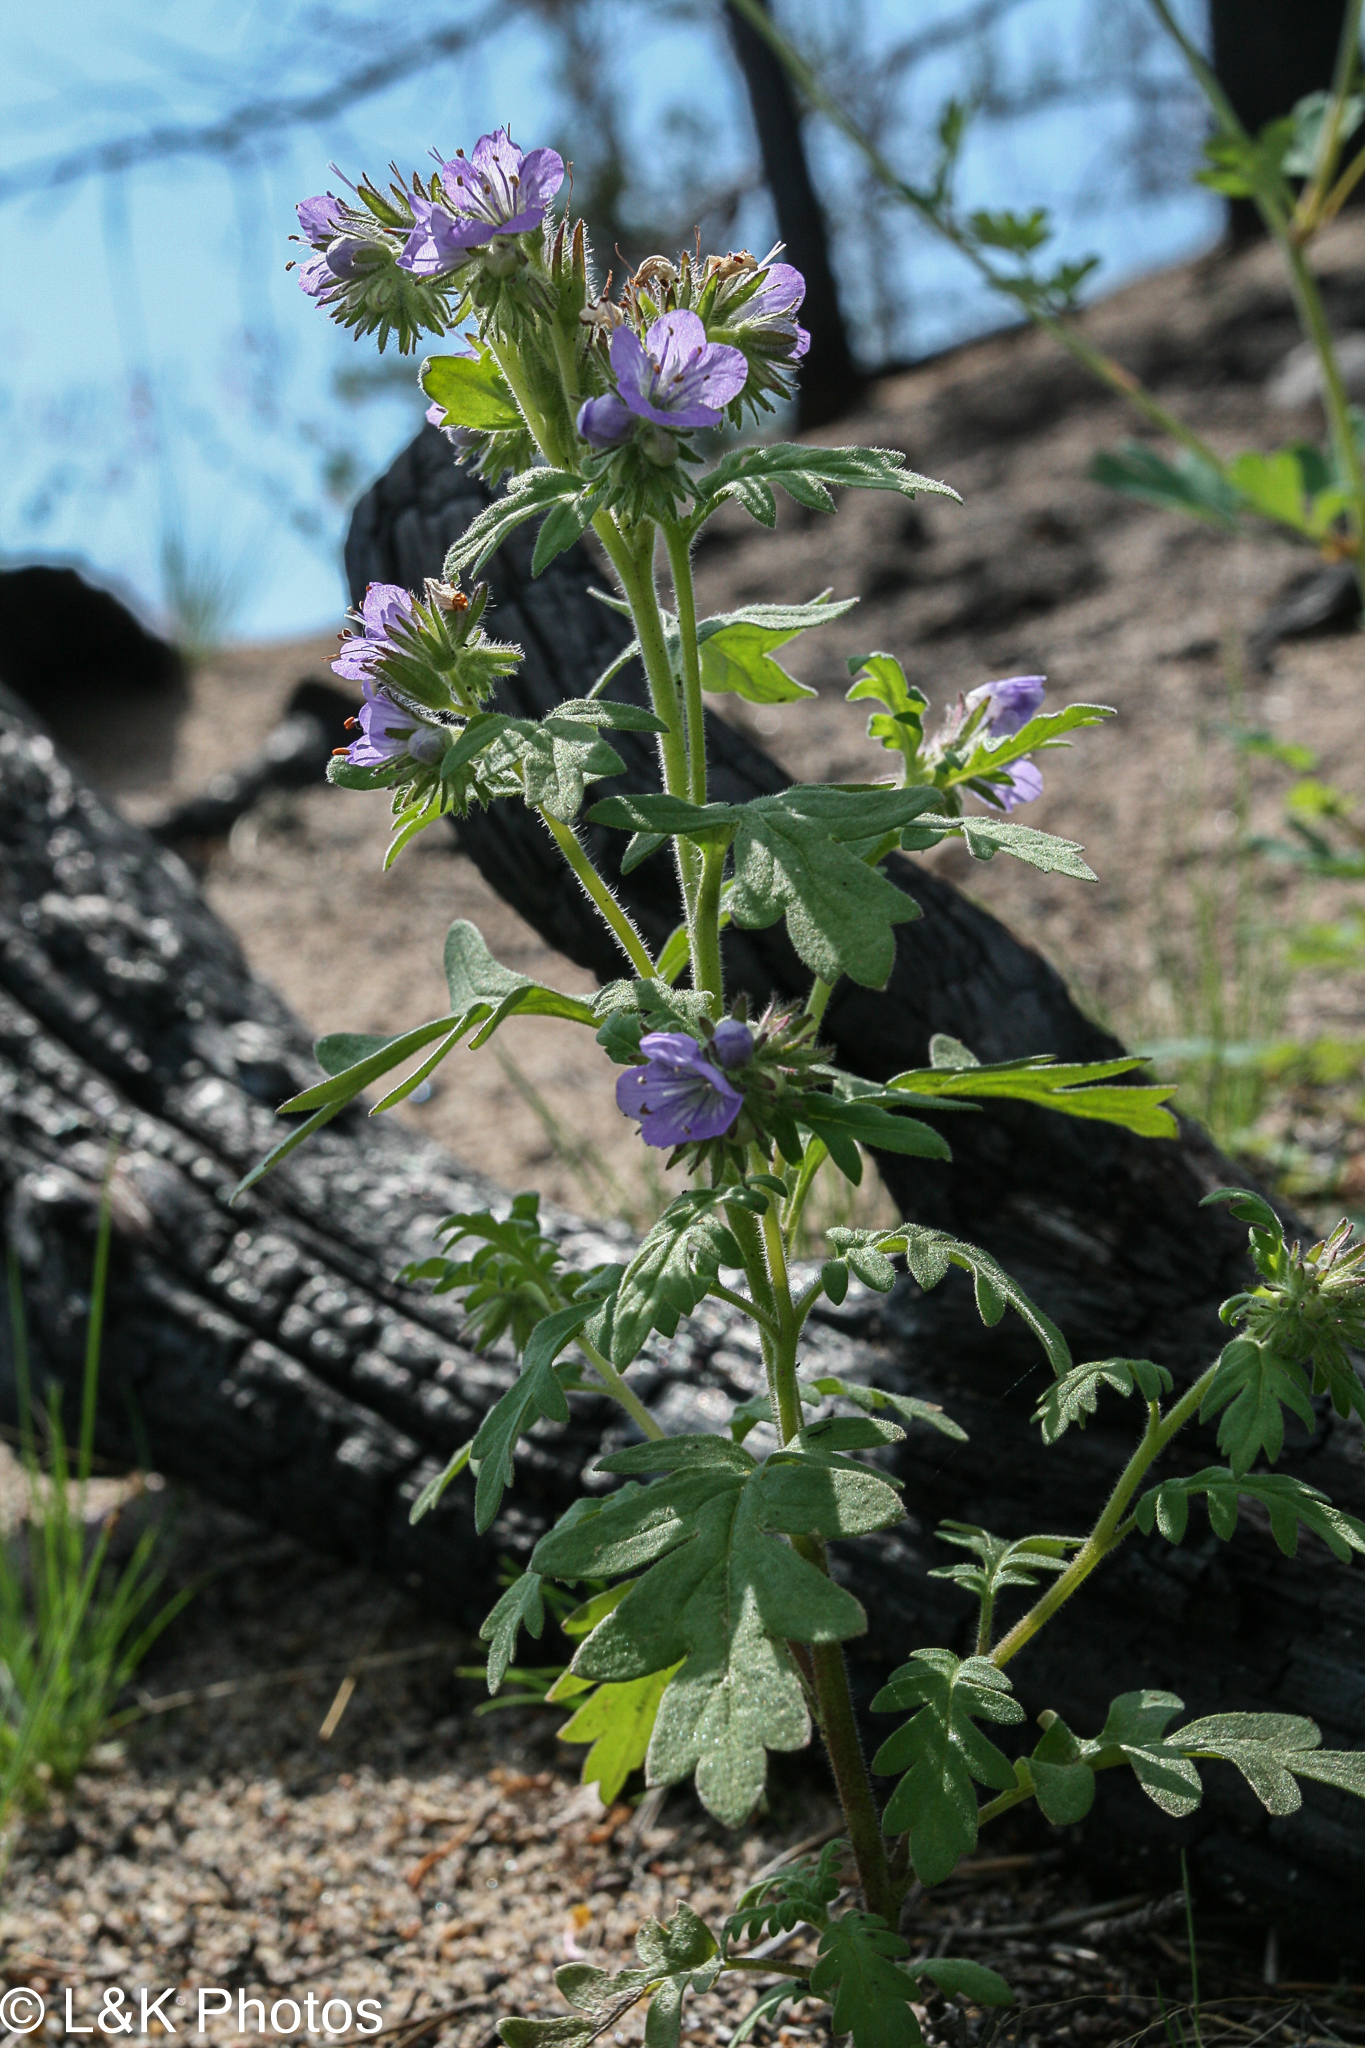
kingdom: Plantae
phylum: Tracheophyta
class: Magnoliopsida
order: Boraginales
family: Hydrophyllaceae
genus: Phacelia
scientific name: Phacelia franklinii
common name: Franklin's phacelia
